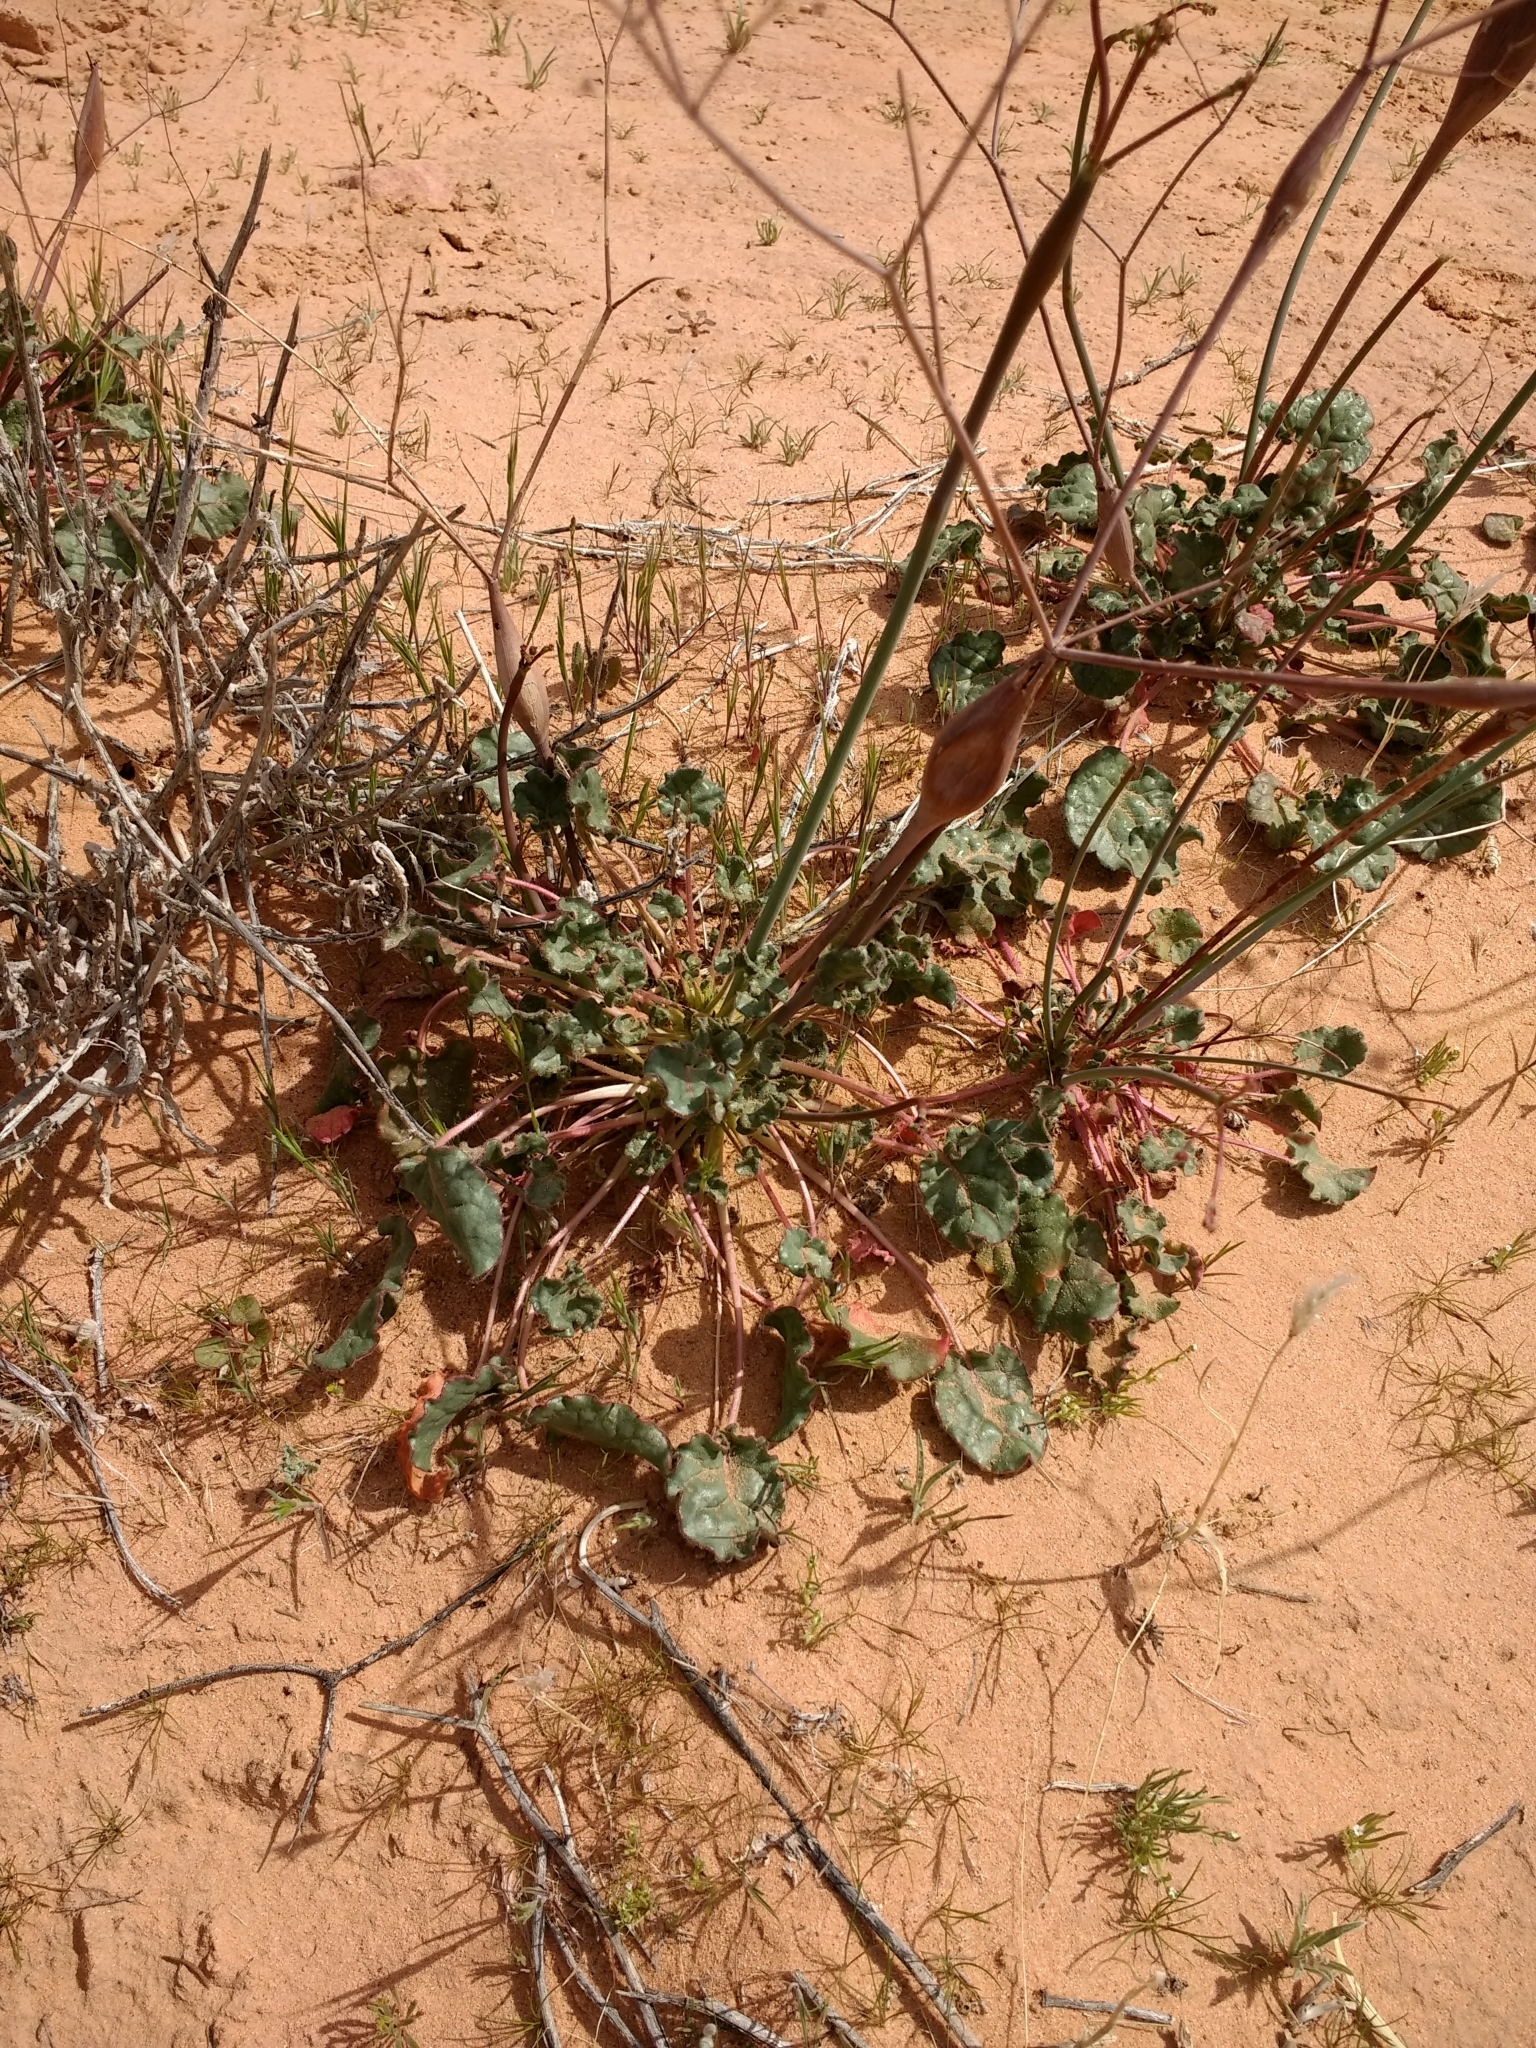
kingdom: Plantae
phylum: Tracheophyta
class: Magnoliopsida
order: Caryophyllales
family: Polygonaceae
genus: Eriogonum
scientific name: Eriogonum inflatum
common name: Desert trumpet
